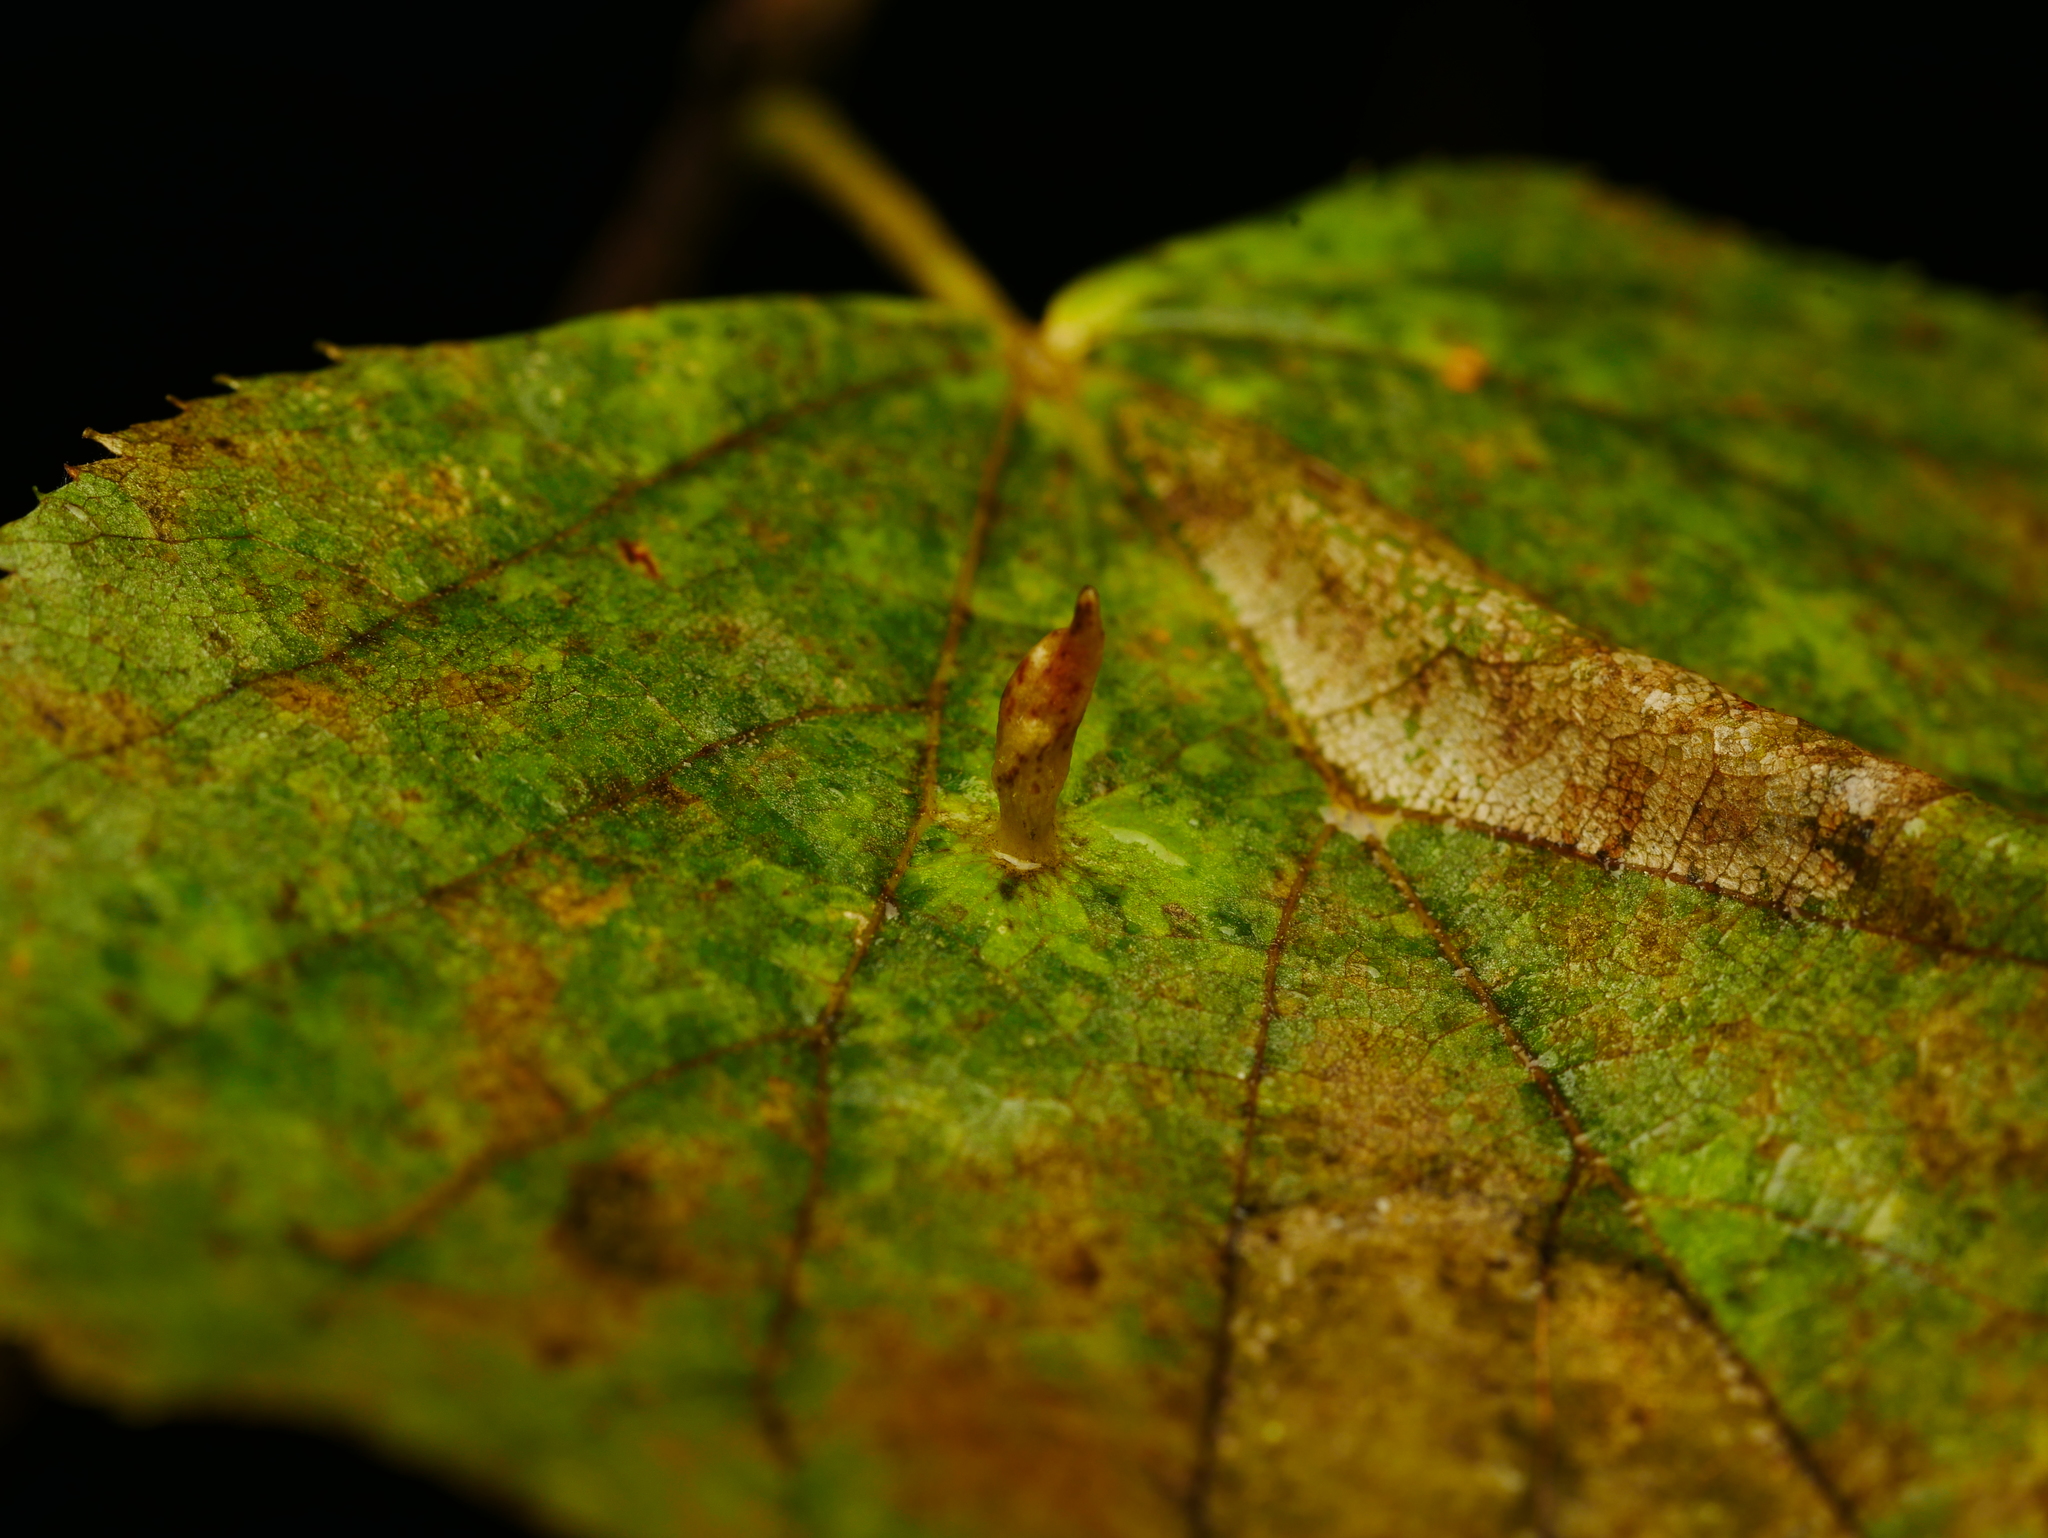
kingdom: Animalia
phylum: Arthropoda
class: Arachnida
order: Trombidiformes
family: Eriophyidae
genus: Eriophyes
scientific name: Eriophyes tiliae
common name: Red nail gall mite
